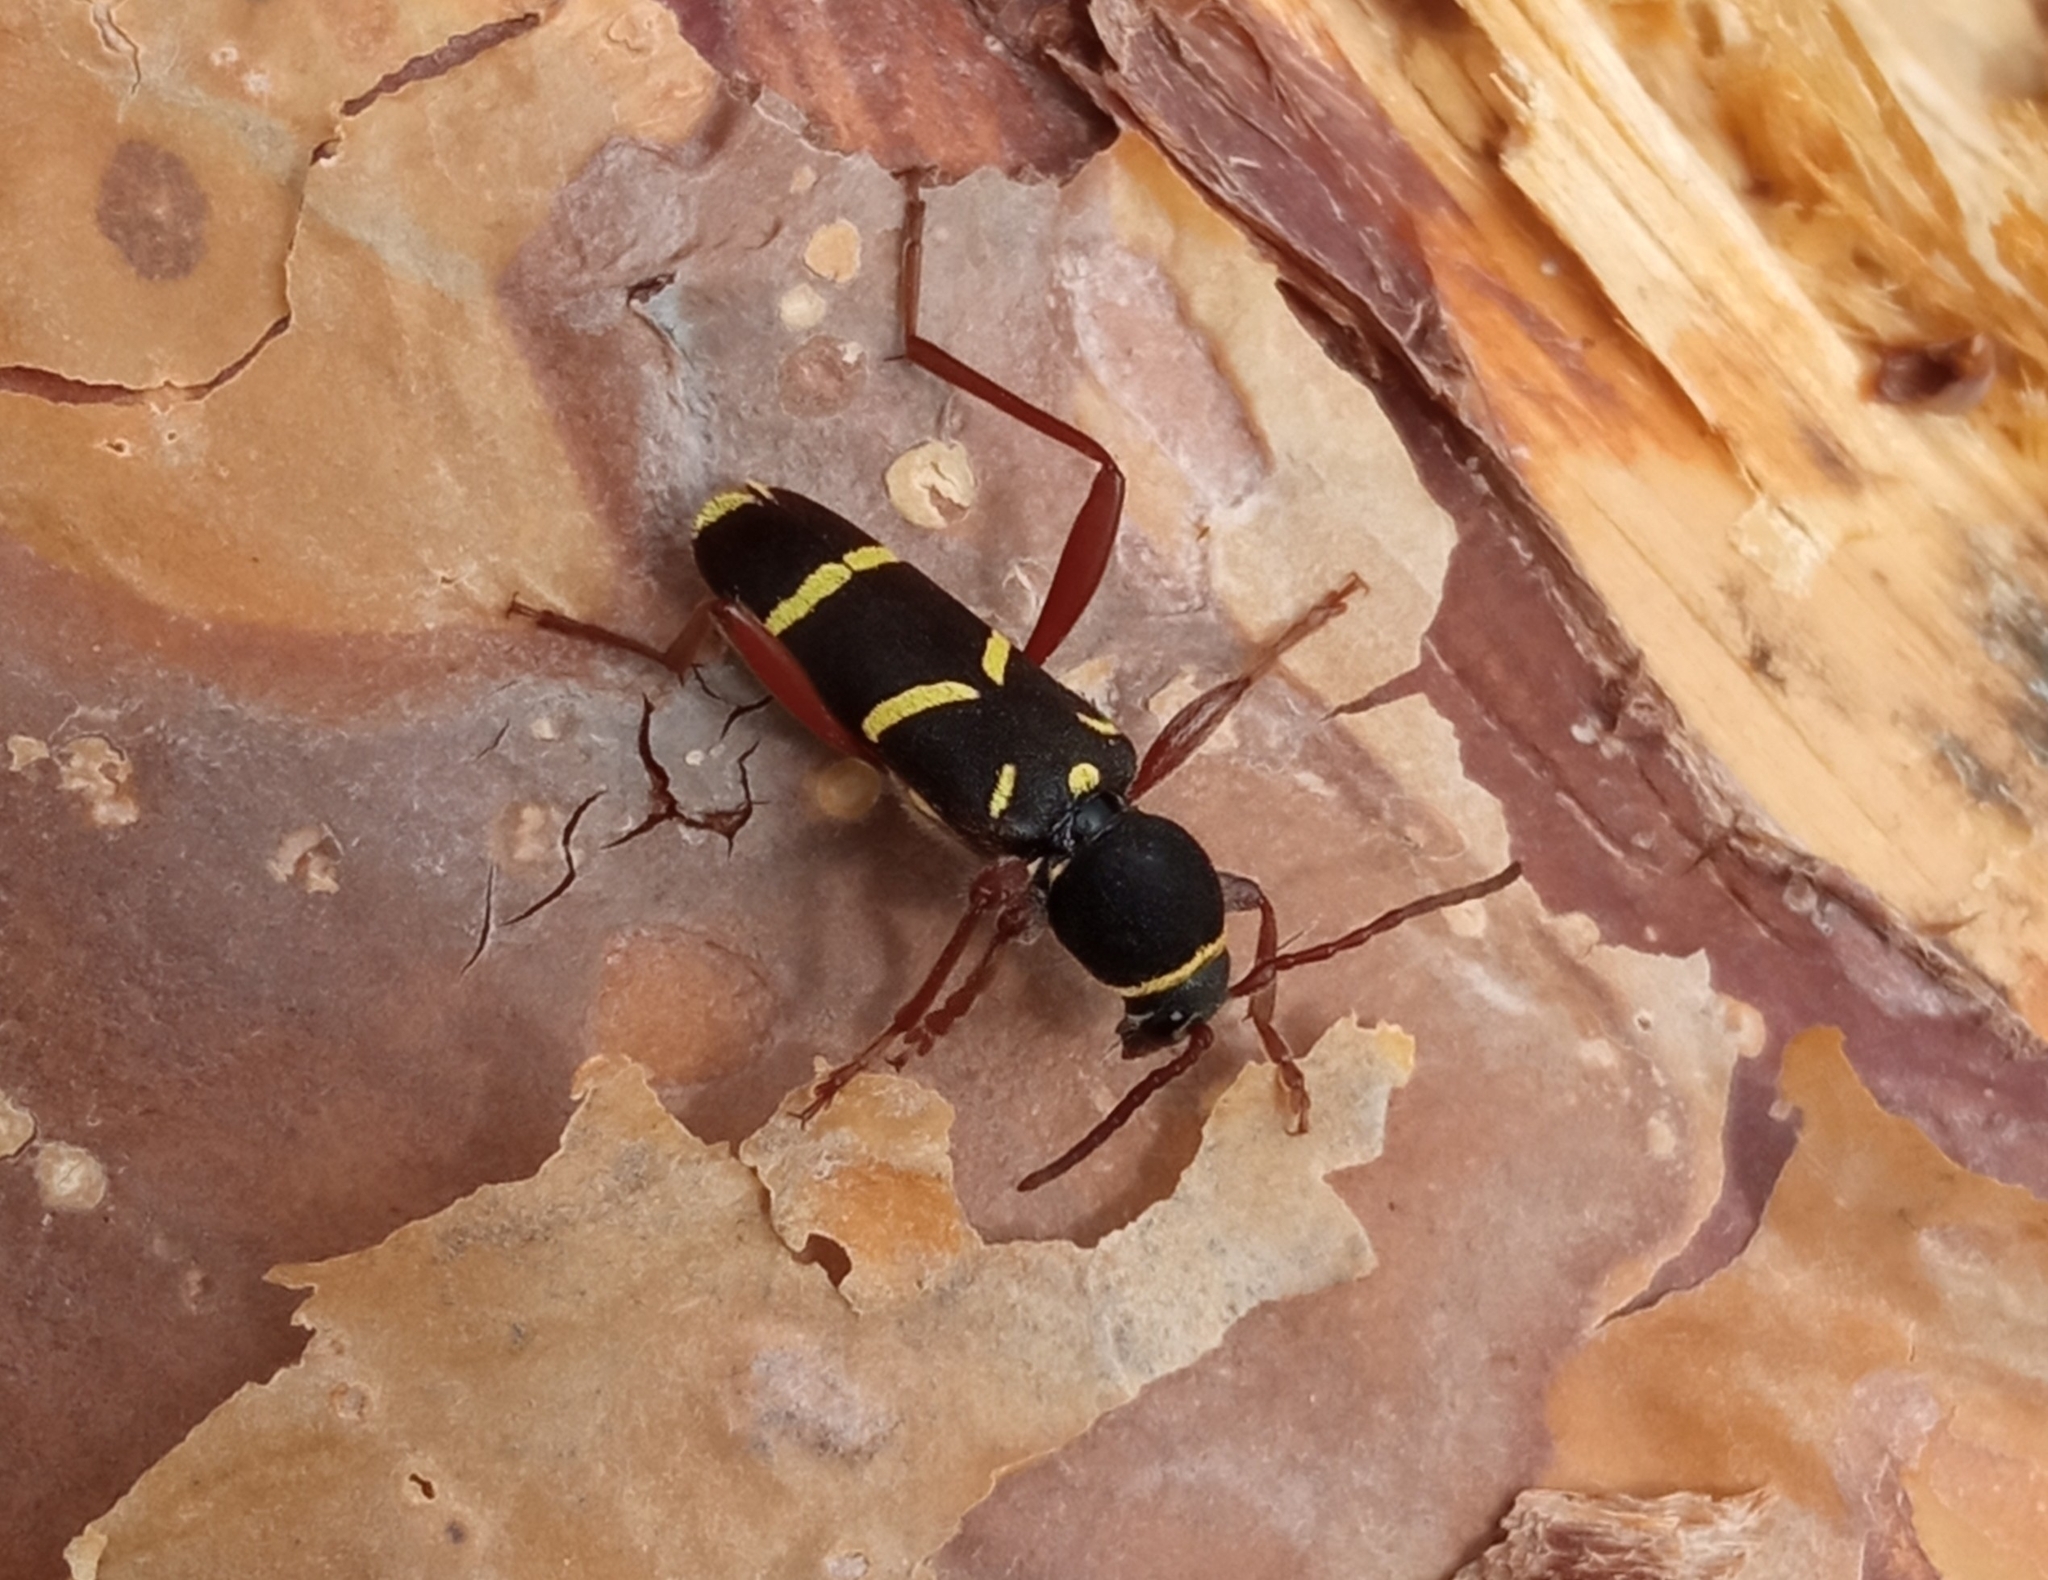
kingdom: Animalia
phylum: Arthropoda
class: Insecta
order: Coleoptera
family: Cerambycidae
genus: Clytus
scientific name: Clytus arietoides
